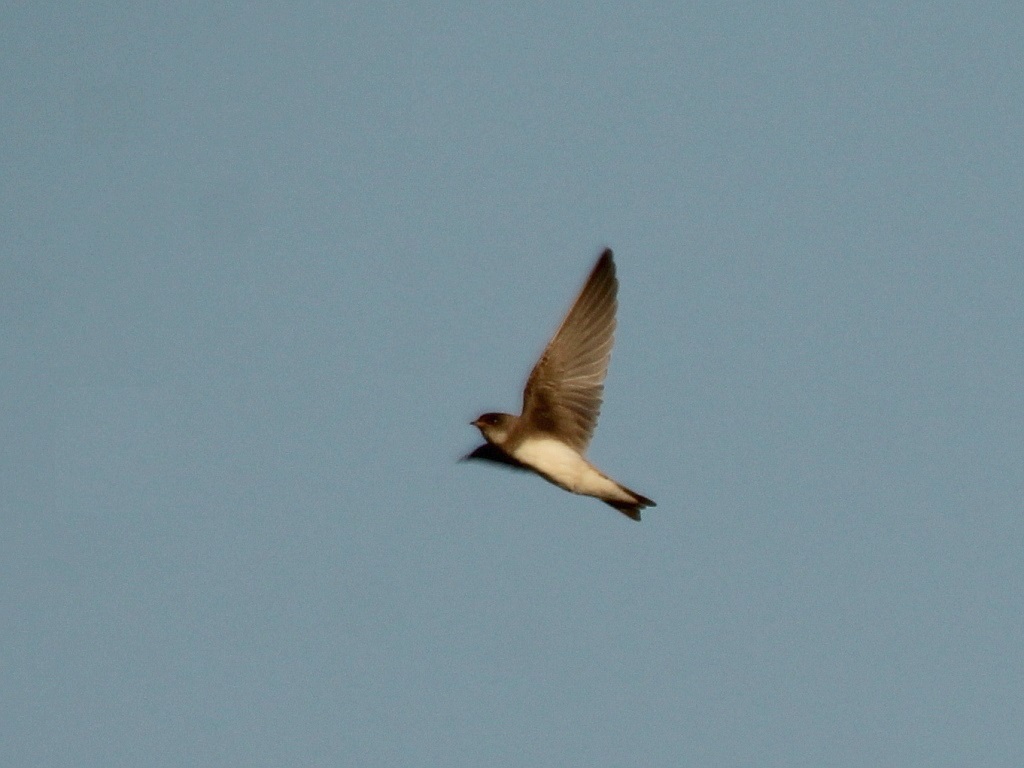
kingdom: Animalia
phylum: Chordata
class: Aves
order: Passeriformes
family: Hirundinidae
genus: Riparia
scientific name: Riparia riparia
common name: Sand martin
